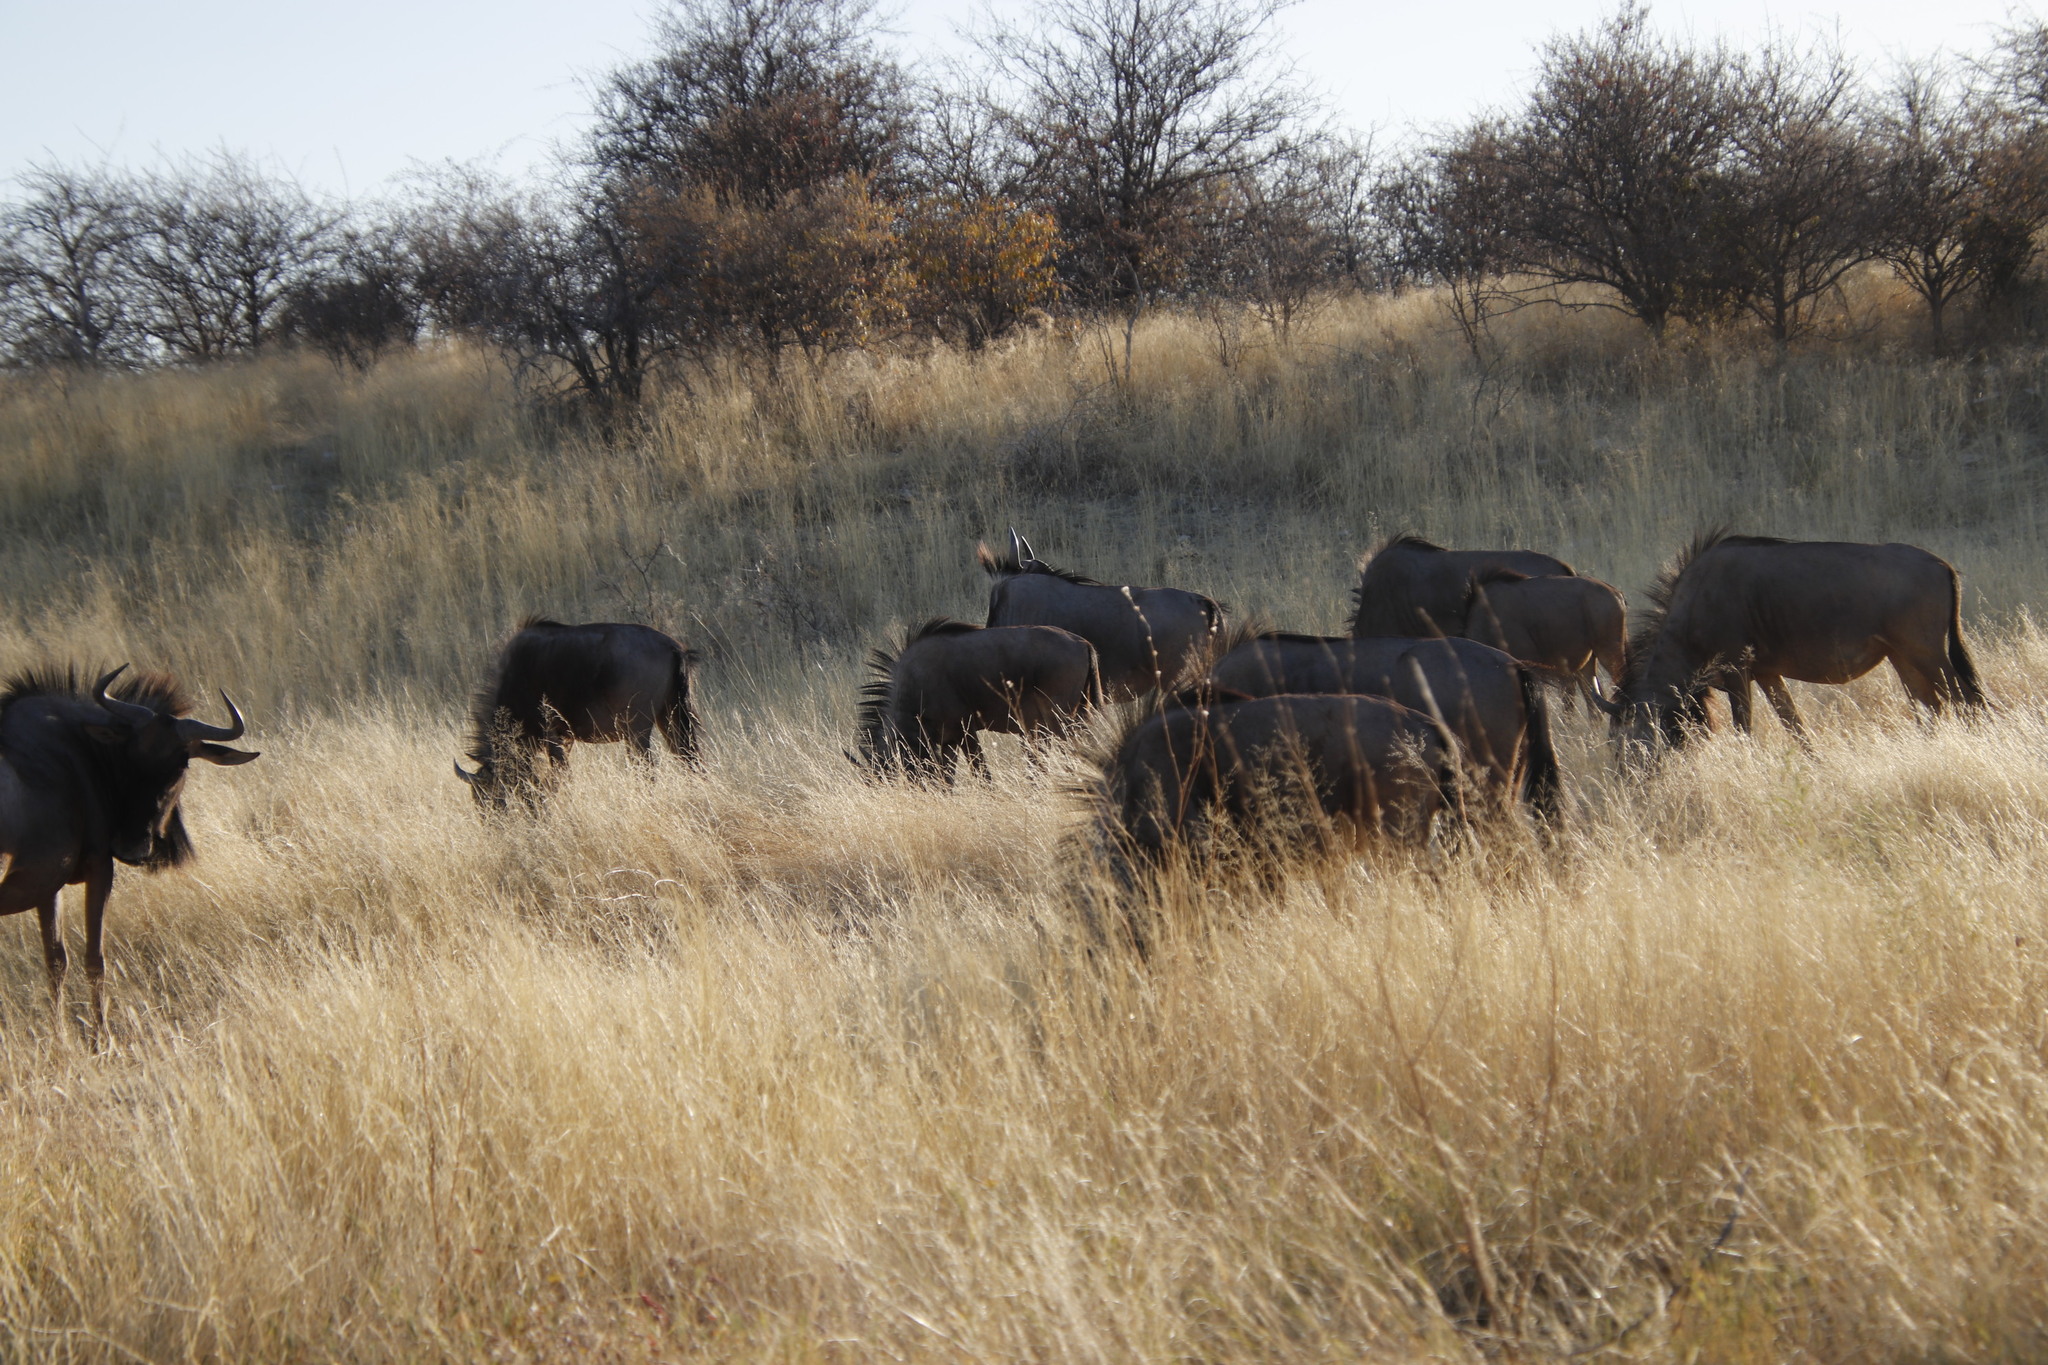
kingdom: Animalia
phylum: Chordata
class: Mammalia
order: Artiodactyla
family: Bovidae
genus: Connochaetes
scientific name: Connochaetes taurinus
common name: Blue wildebeest
